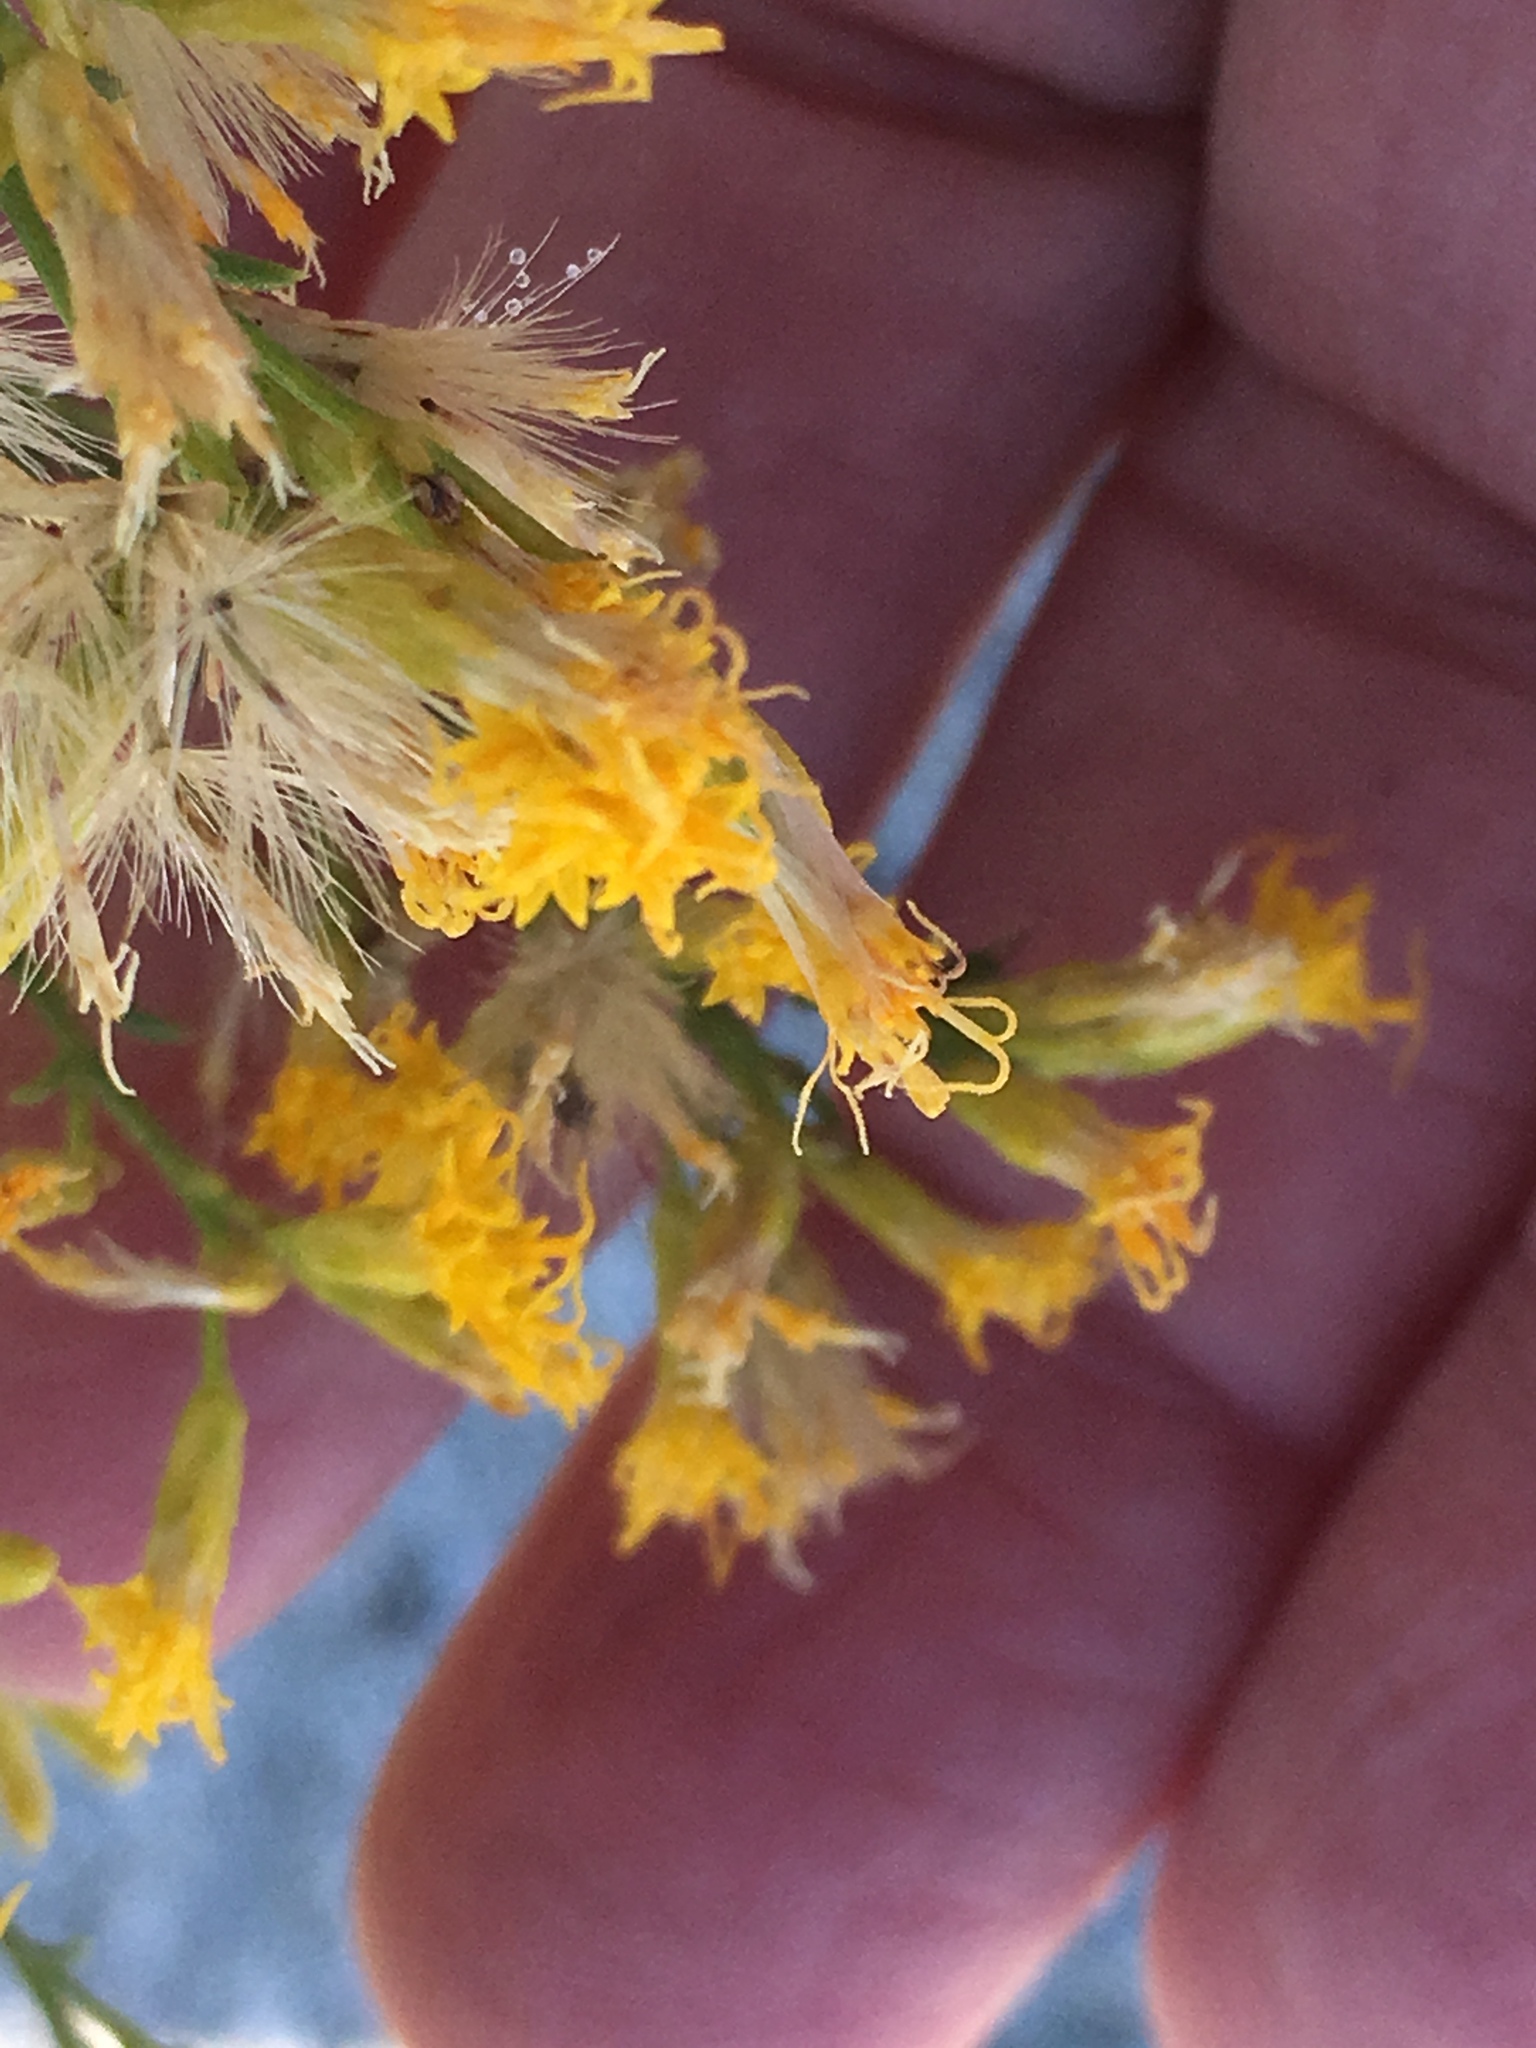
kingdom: Plantae
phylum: Tracheophyta
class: Magnoliopsida
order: Asterales
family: Asteraceae
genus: Ericameria
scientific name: Ericameria paniculata
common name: Punctate rabbitbrush
